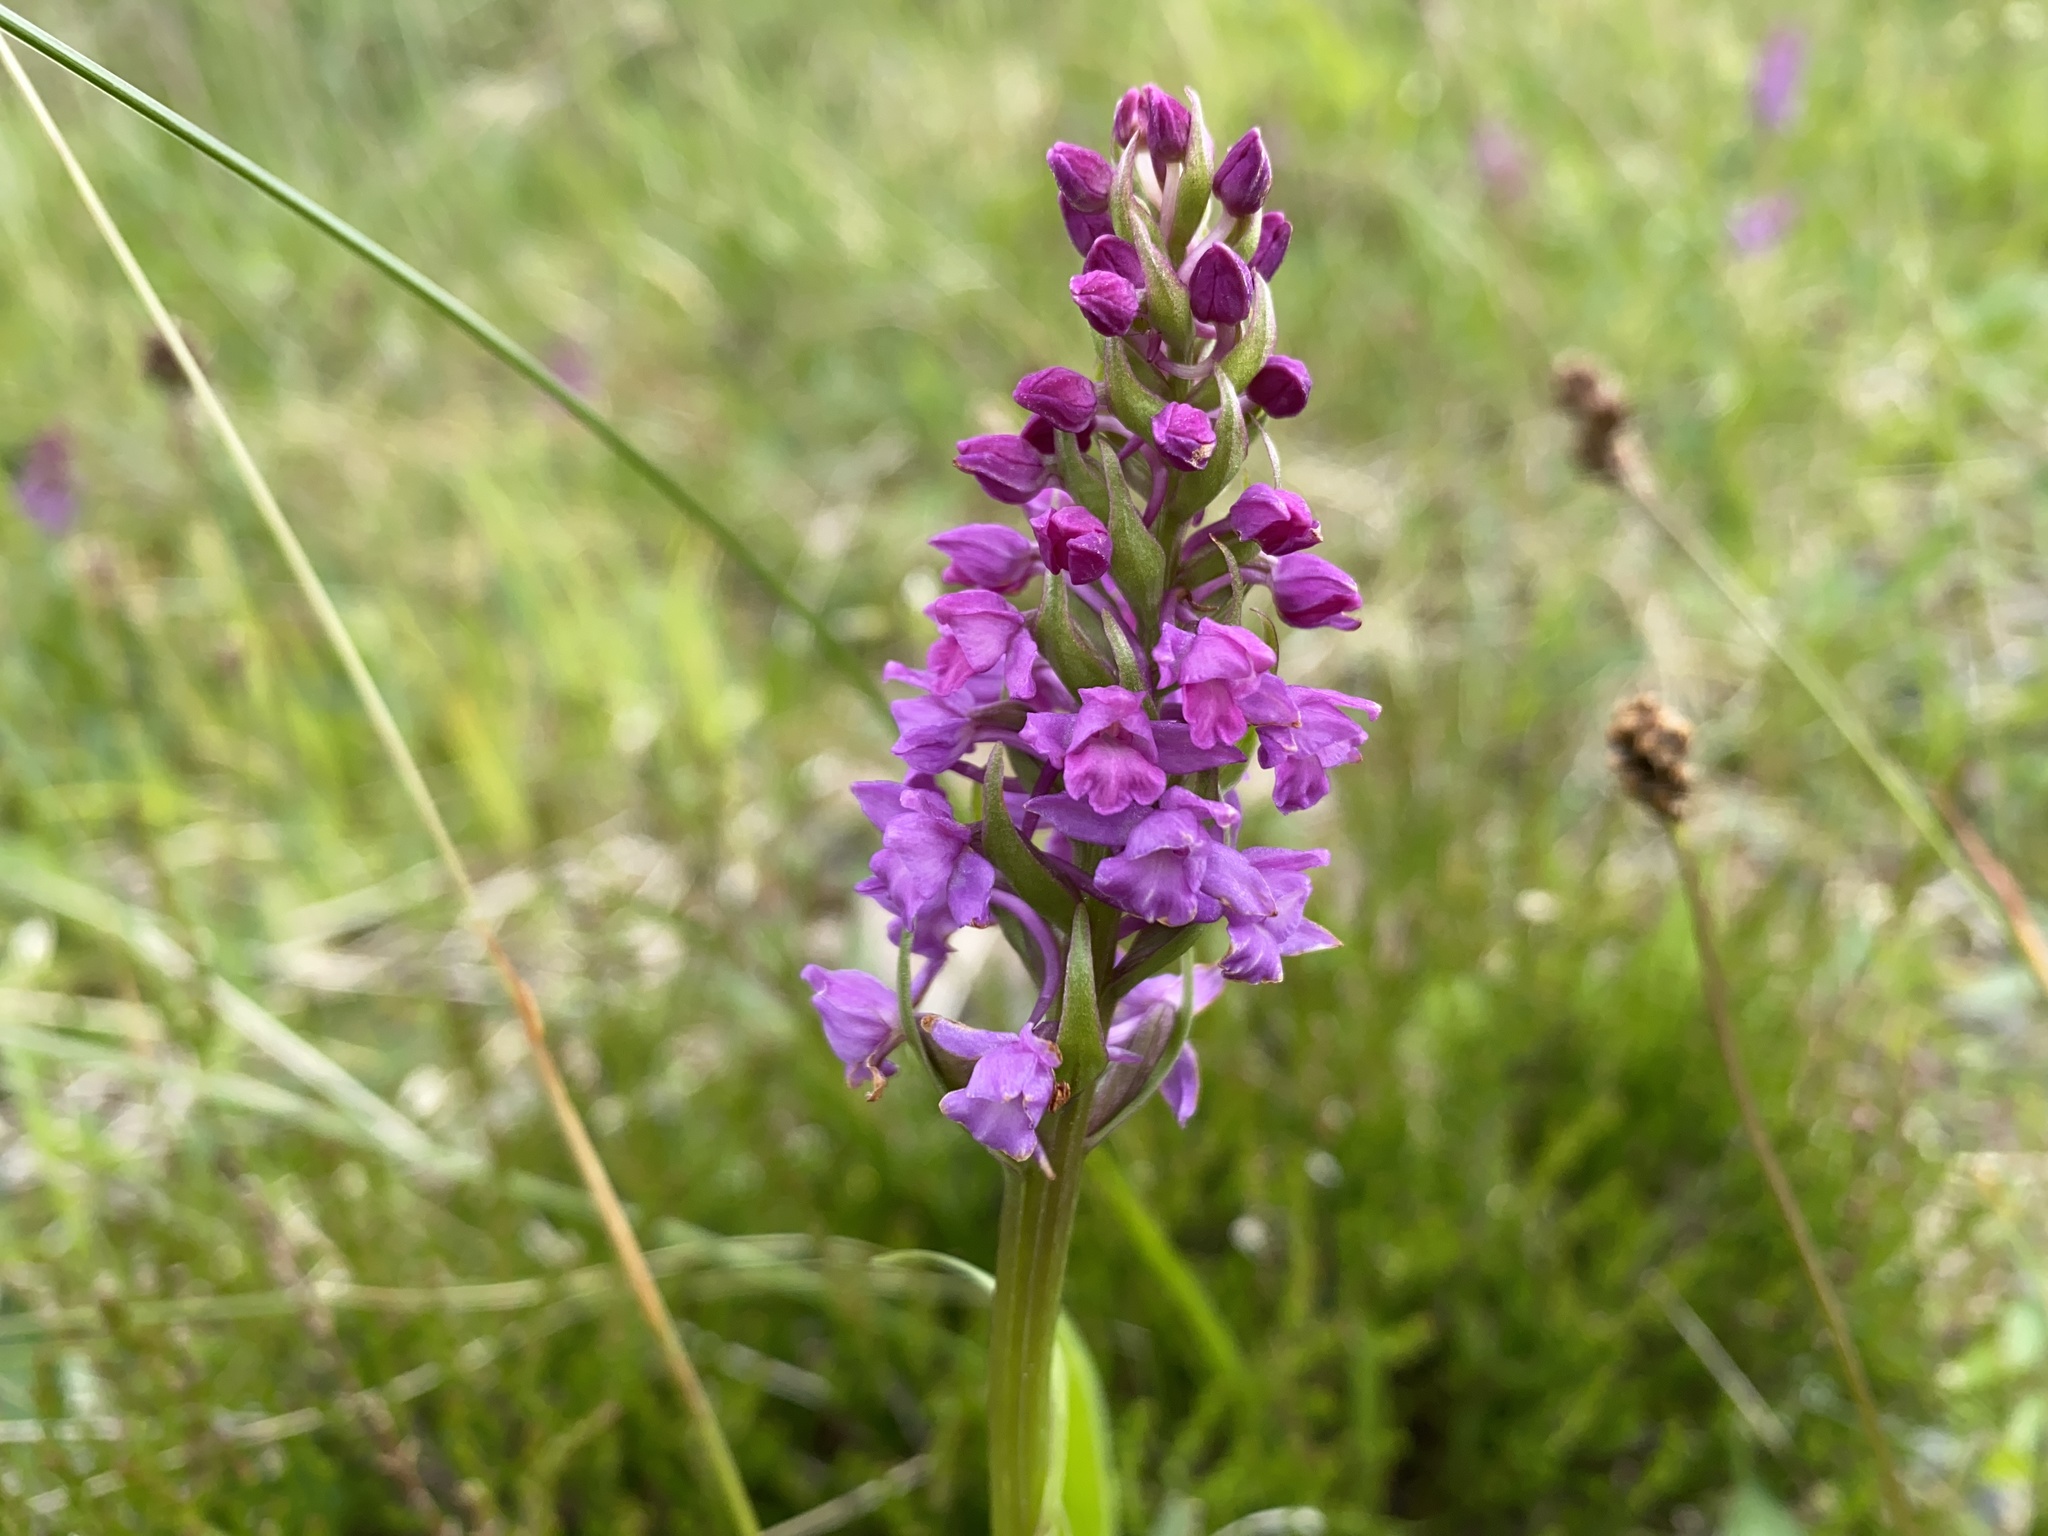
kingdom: Plantae
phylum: Tracheophyta
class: Liliopsida
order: Asparagales
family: Orchidaceae
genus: Gymnadenia
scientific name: Gymnadenia conopsea
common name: Fragrant orchid
